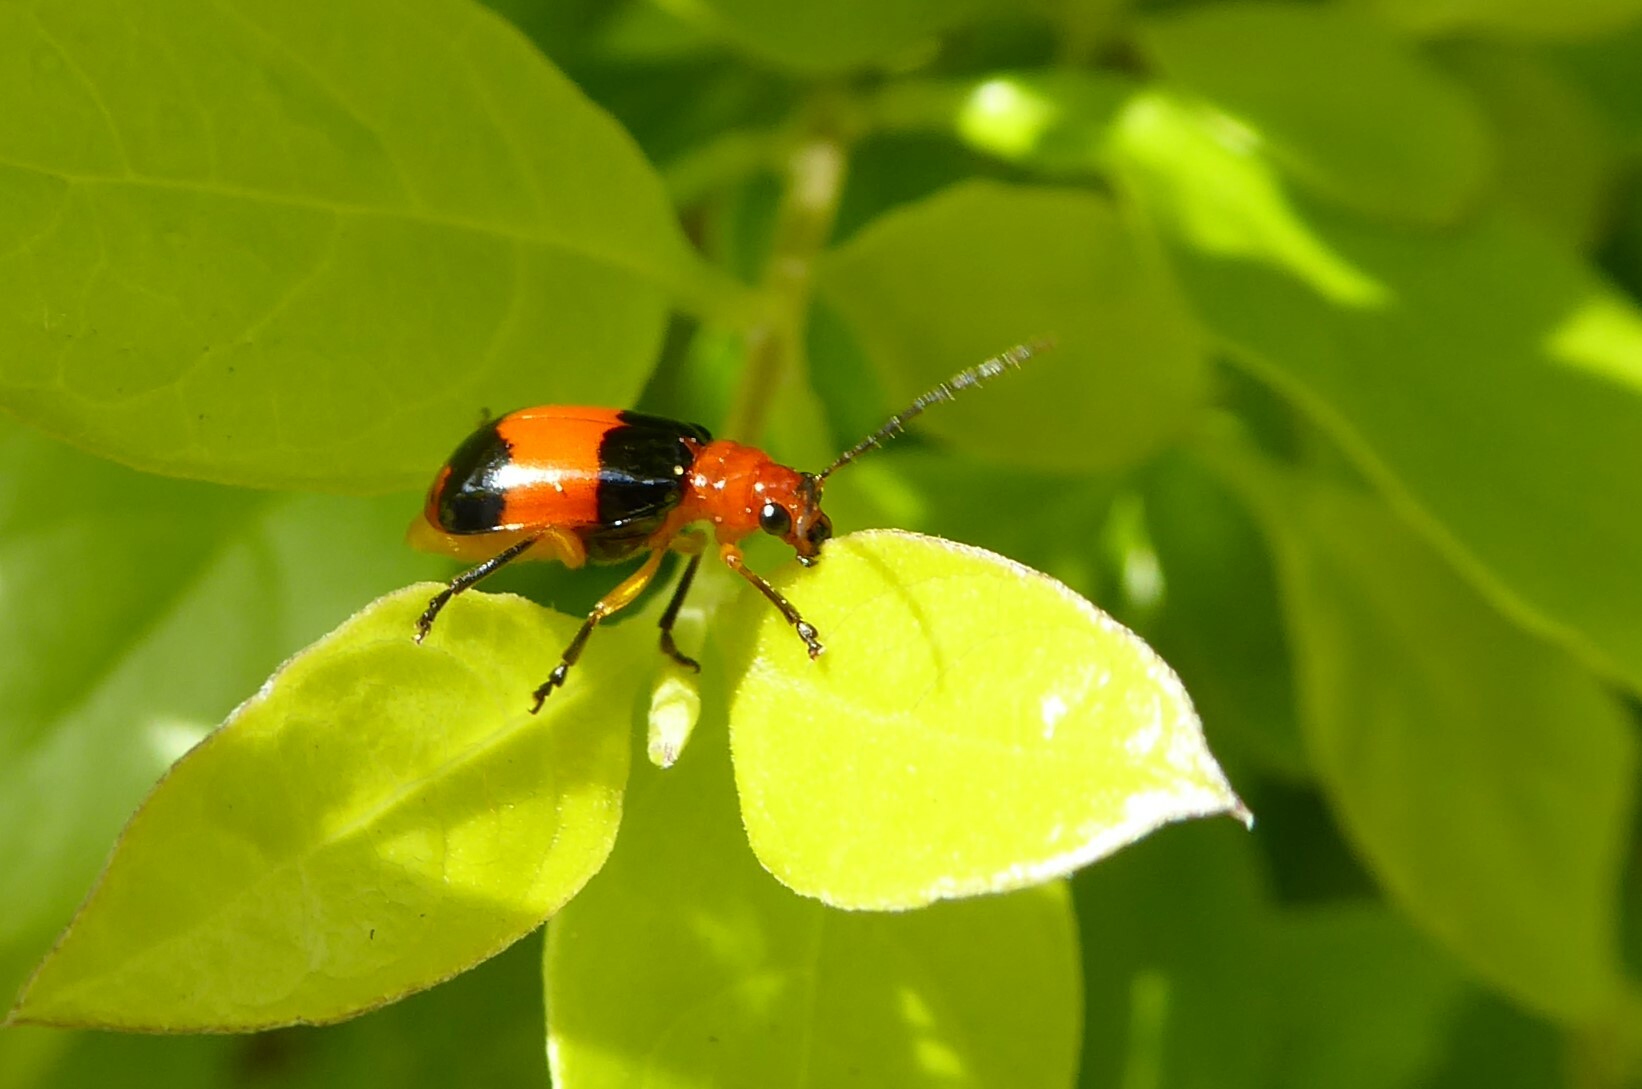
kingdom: Animalia
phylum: Arthropoda
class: Insecta
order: Coleoptera
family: Chrysomelidae
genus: Aulacophora
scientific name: Aulacophora
